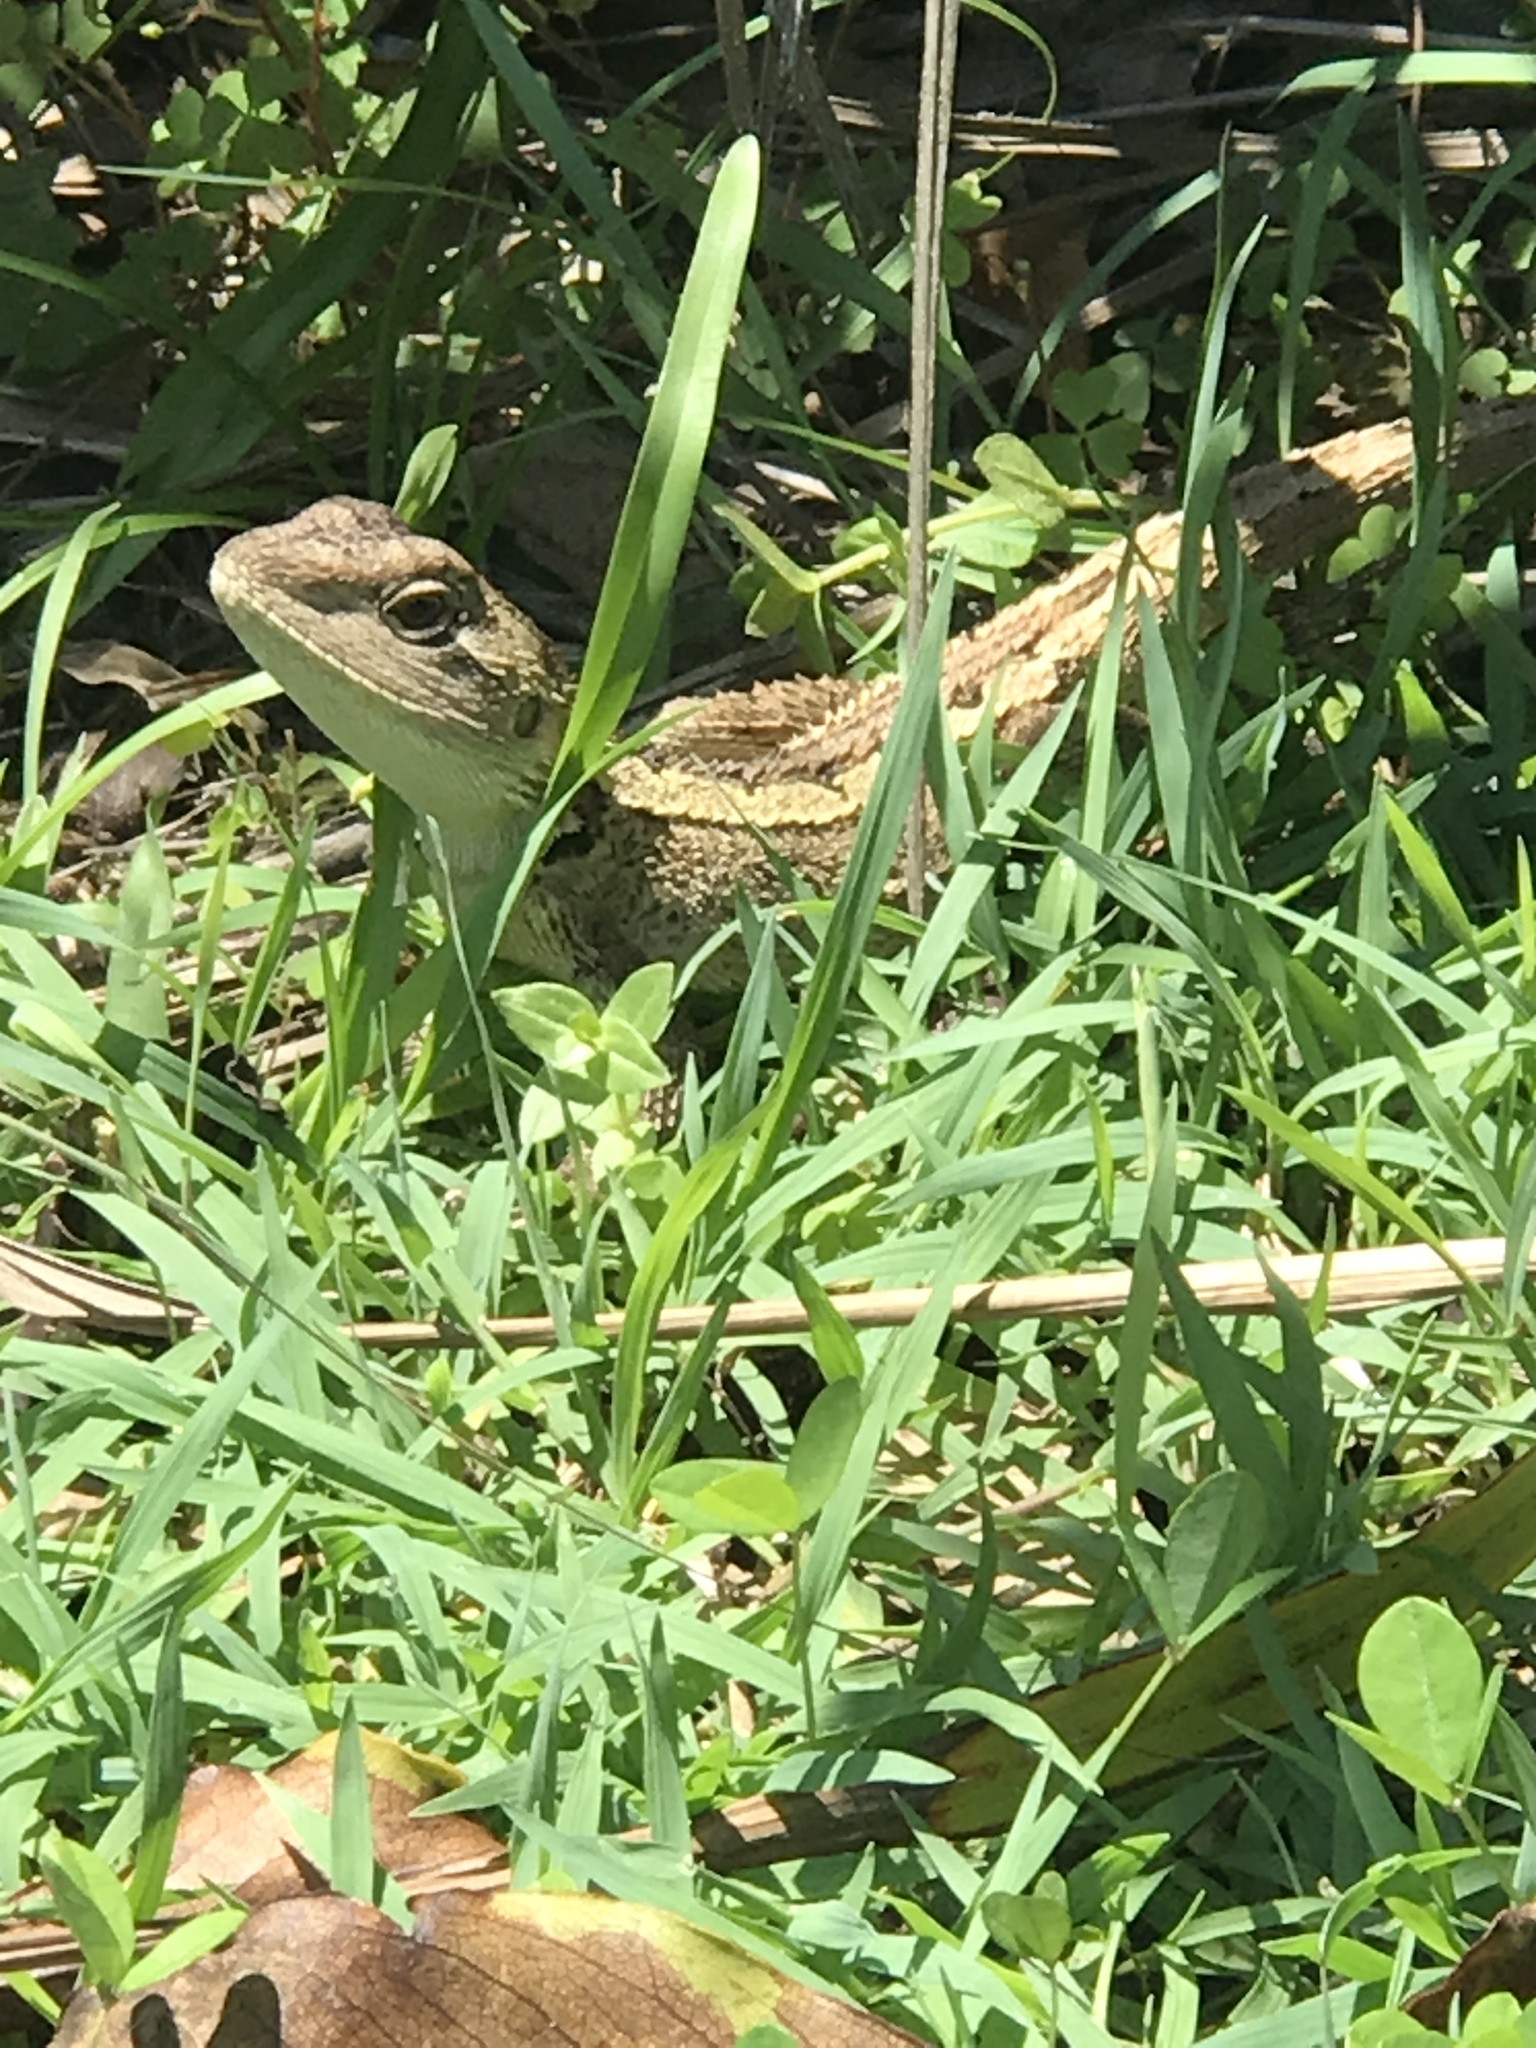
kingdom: Animalia
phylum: Chordata
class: Squamata
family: Agamidae
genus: Amphibolurus
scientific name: Amphibolurus muricatus
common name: Jacky lizard
